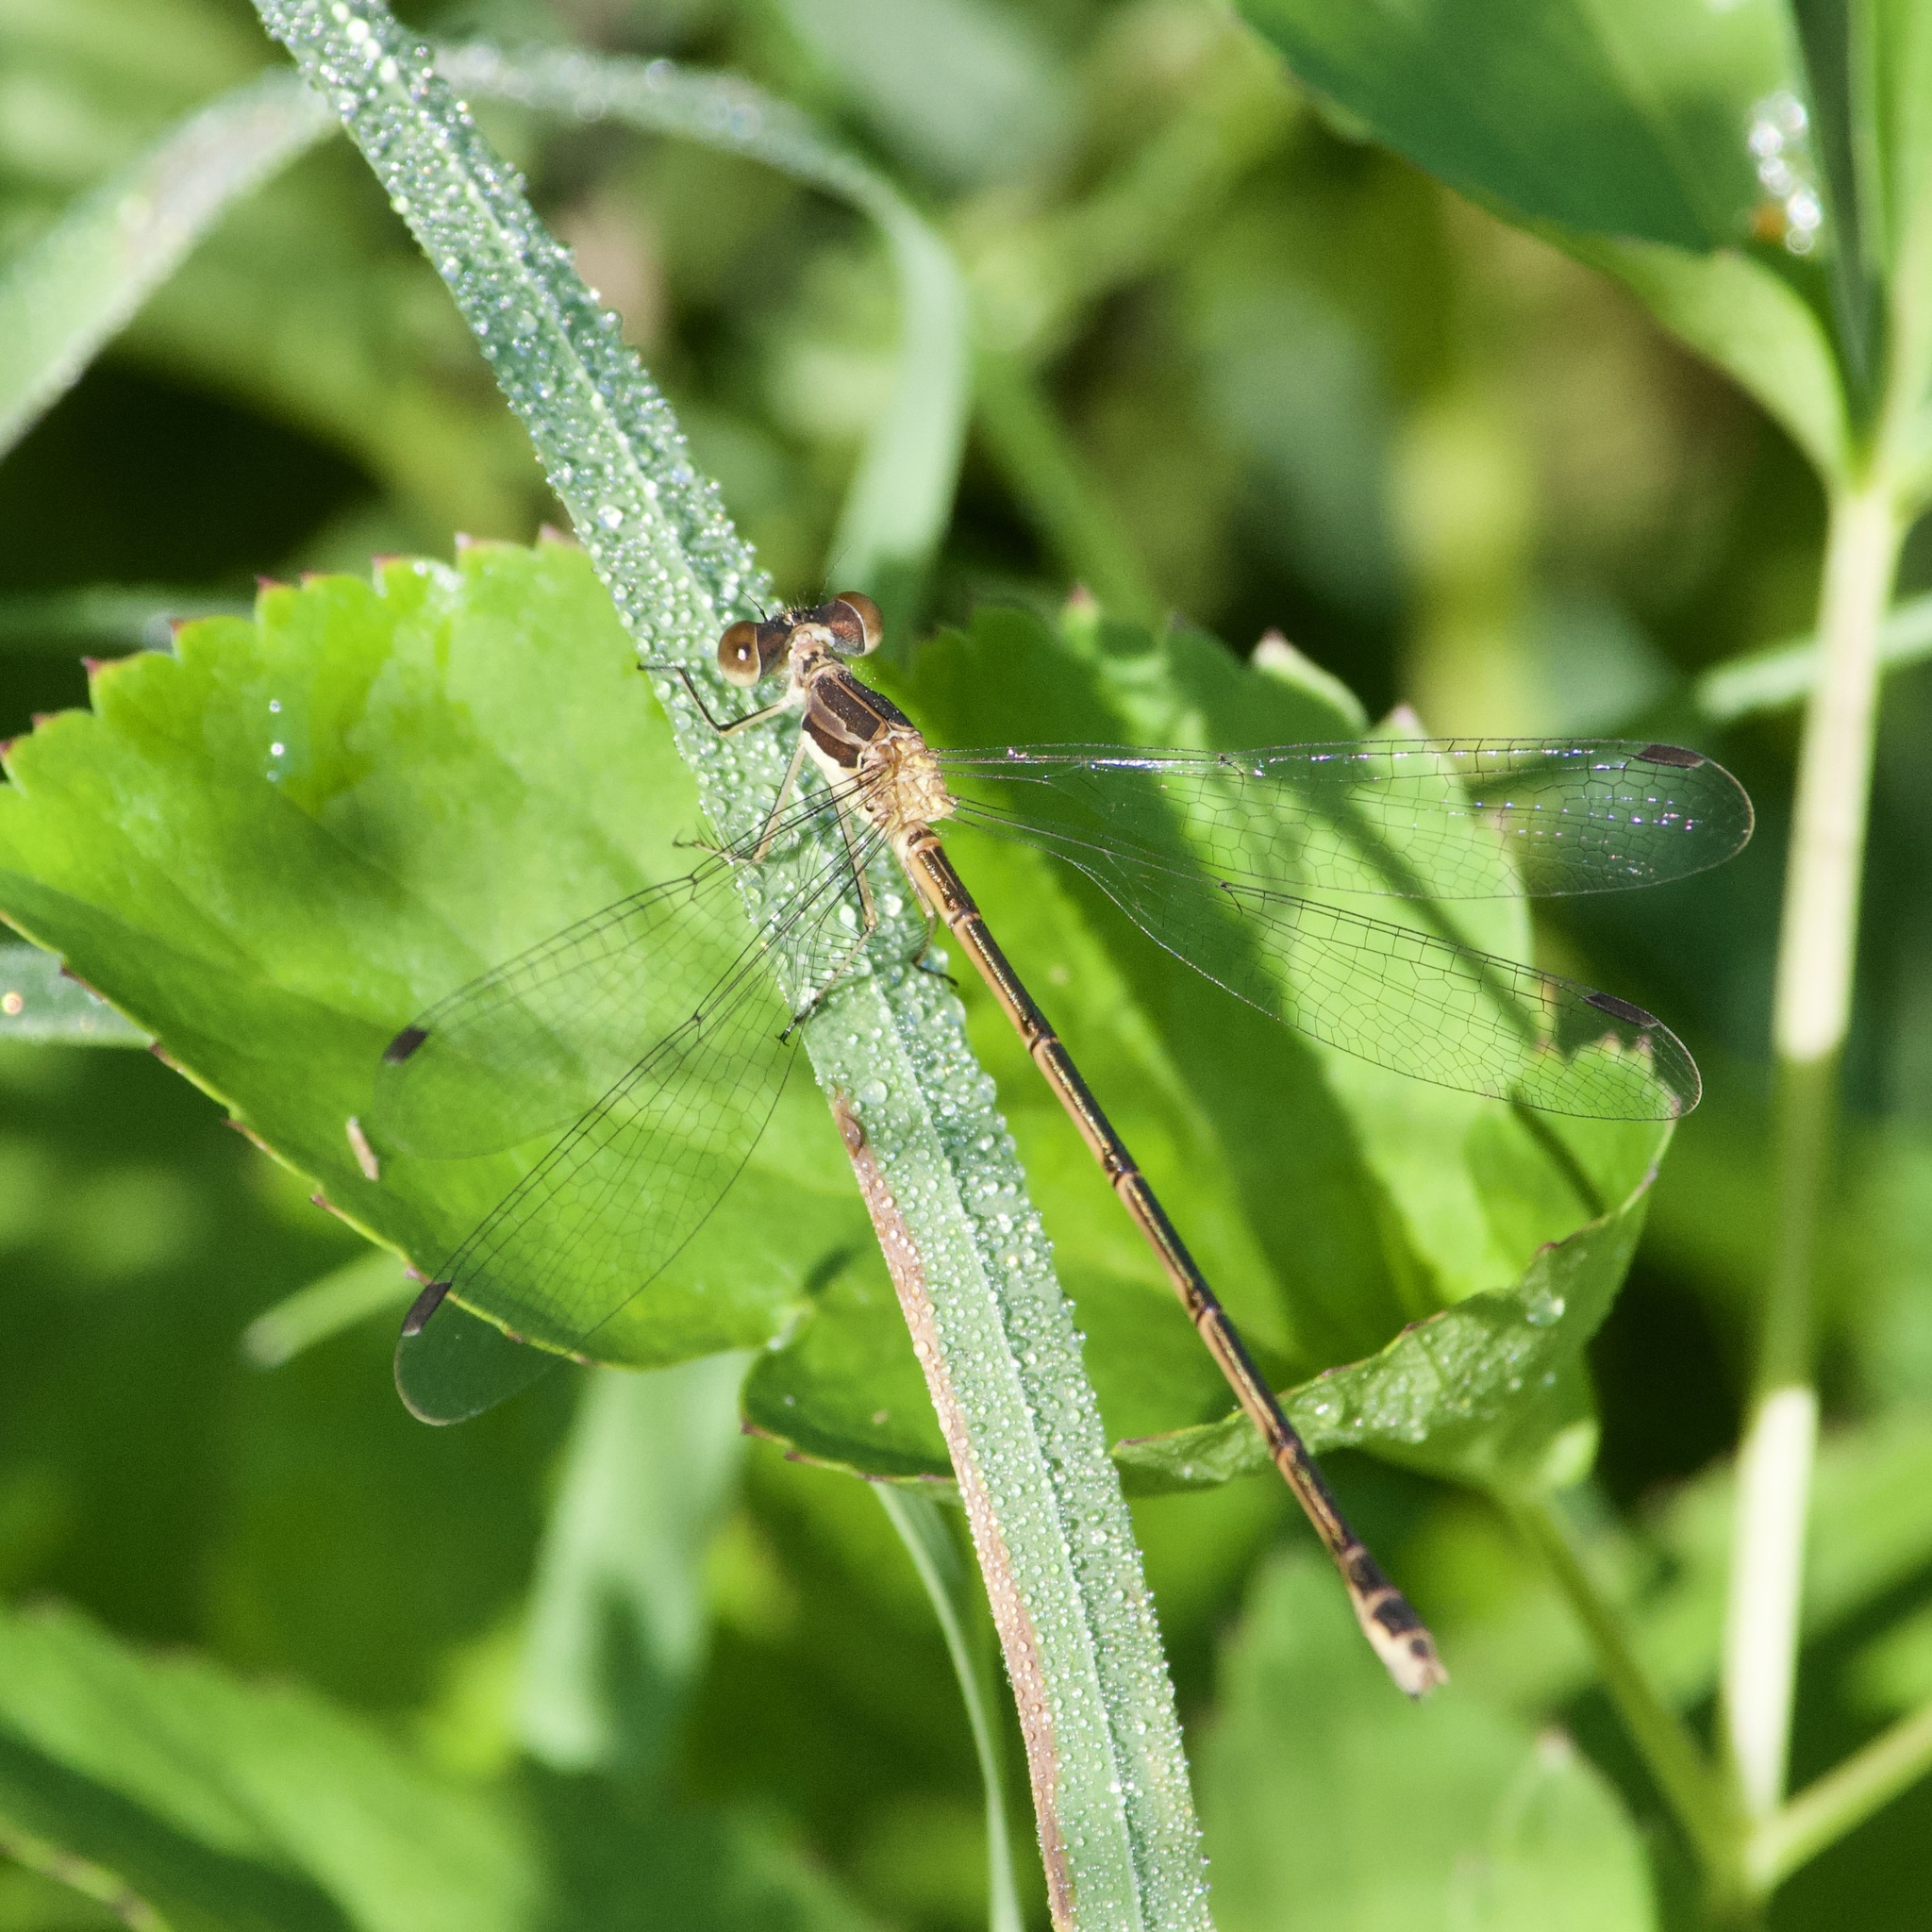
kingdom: Animalia
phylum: Arthropoda
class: Insecta
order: Odonata
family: Lestidae
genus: Lestes
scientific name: Lestes rectangularis
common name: Slender spreadwing
